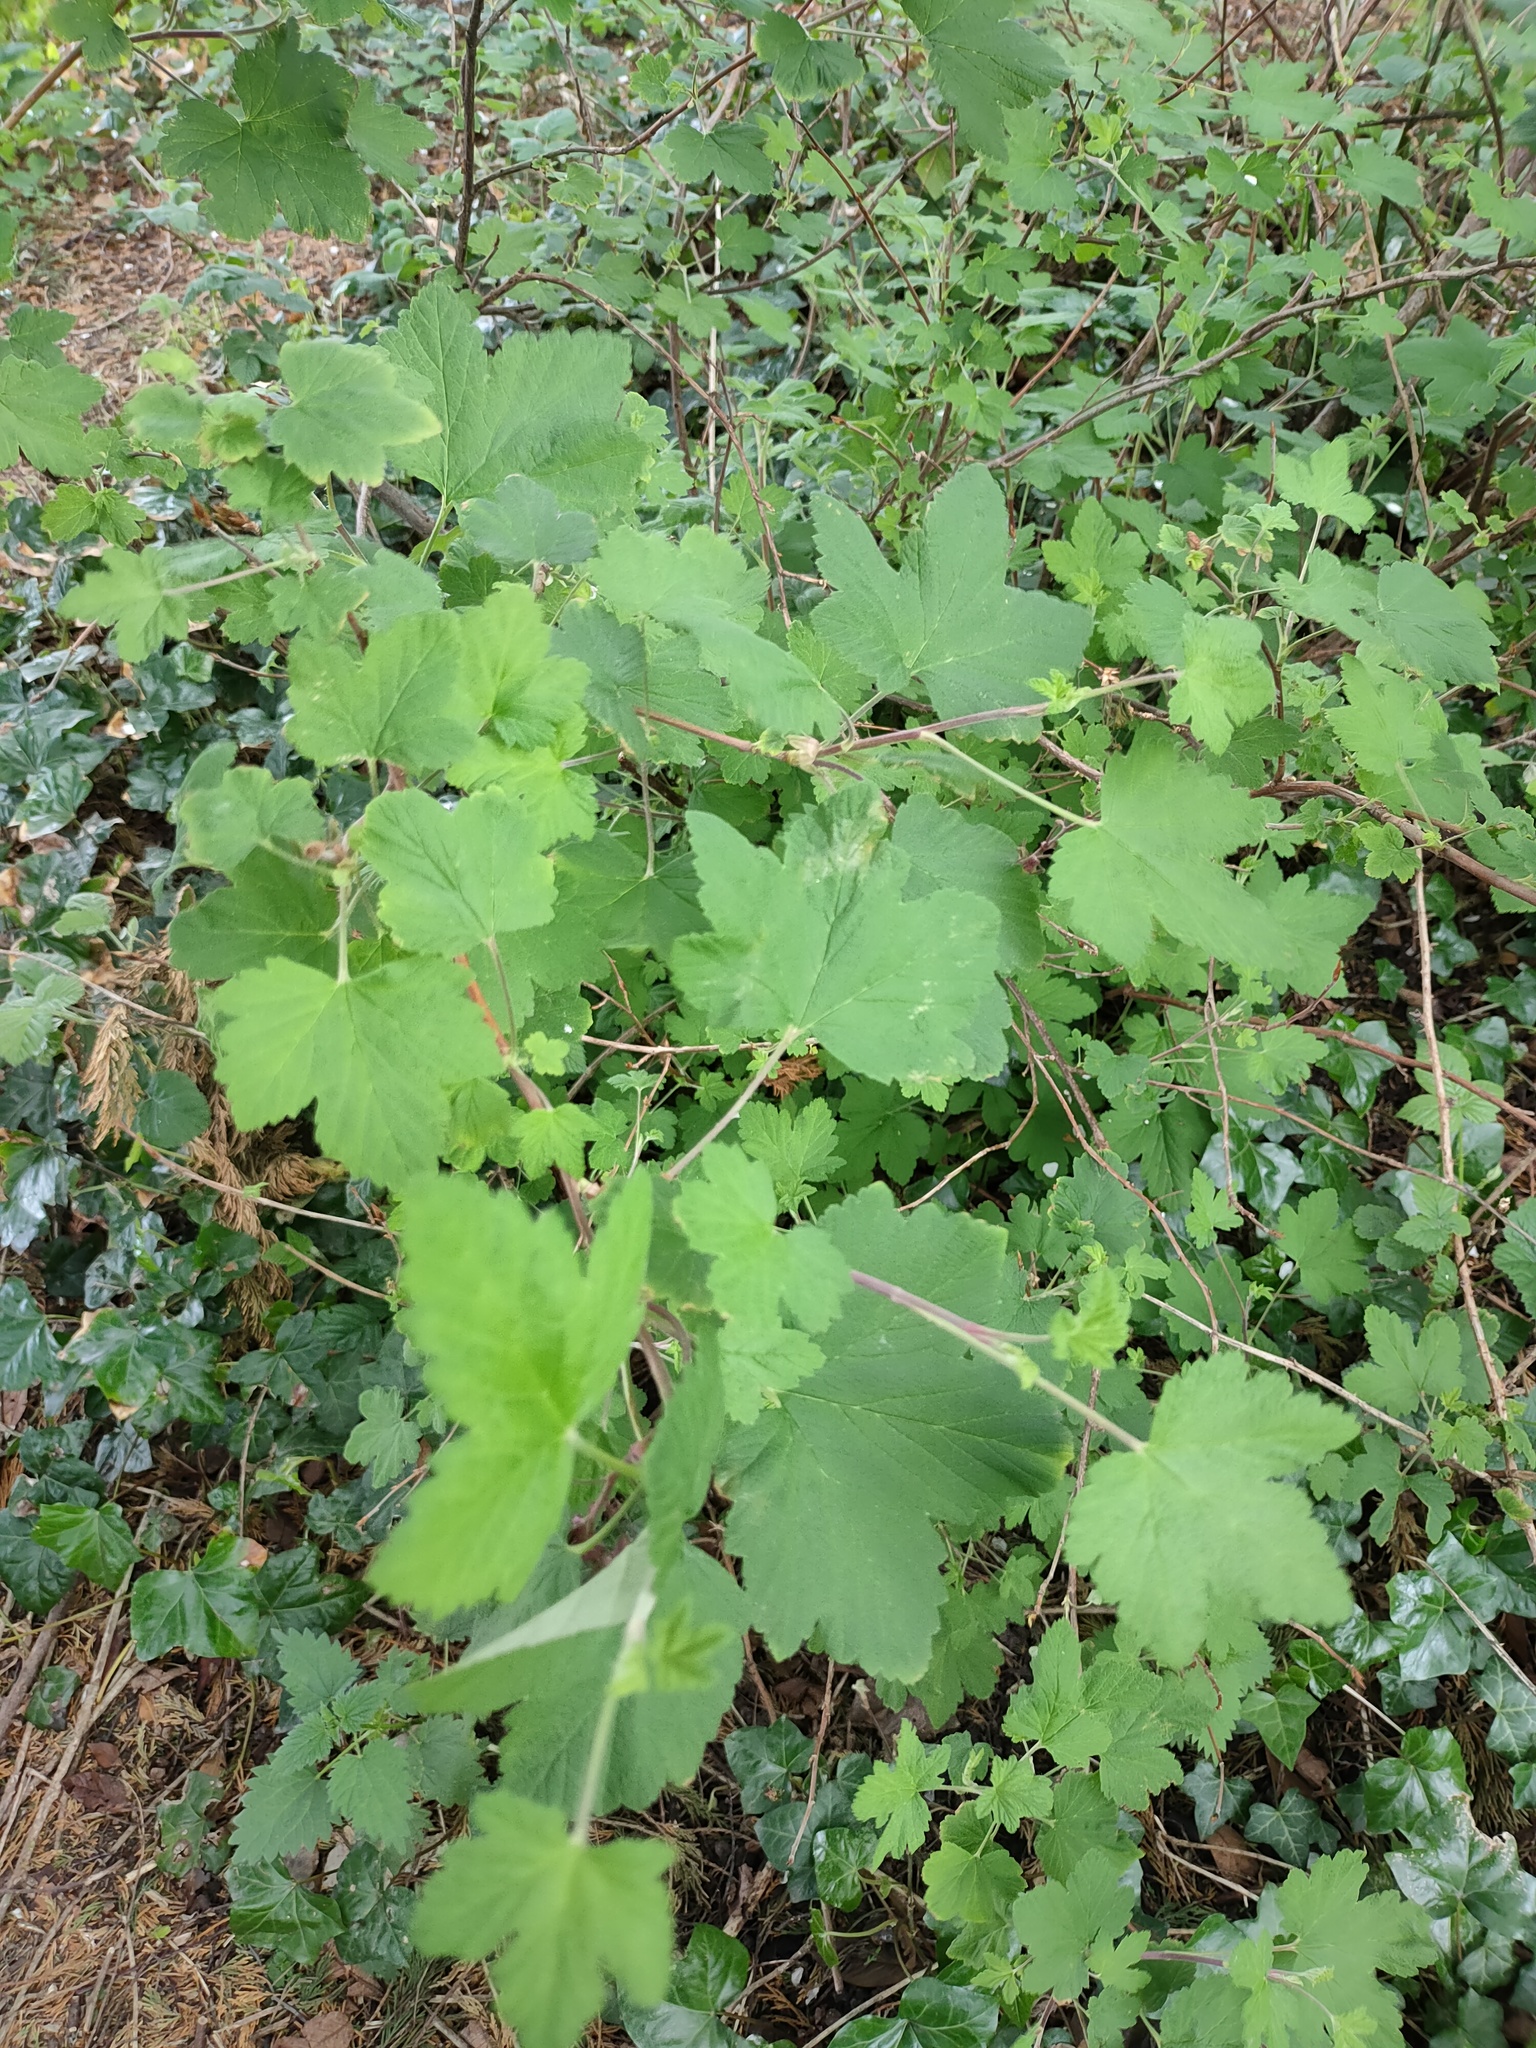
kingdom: Plantae
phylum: Tracheophyta
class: Magnoliopsida
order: Saxifragales
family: Grossulariaceae
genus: Ribes
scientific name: Ribes sanguineum
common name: Flowering currant
